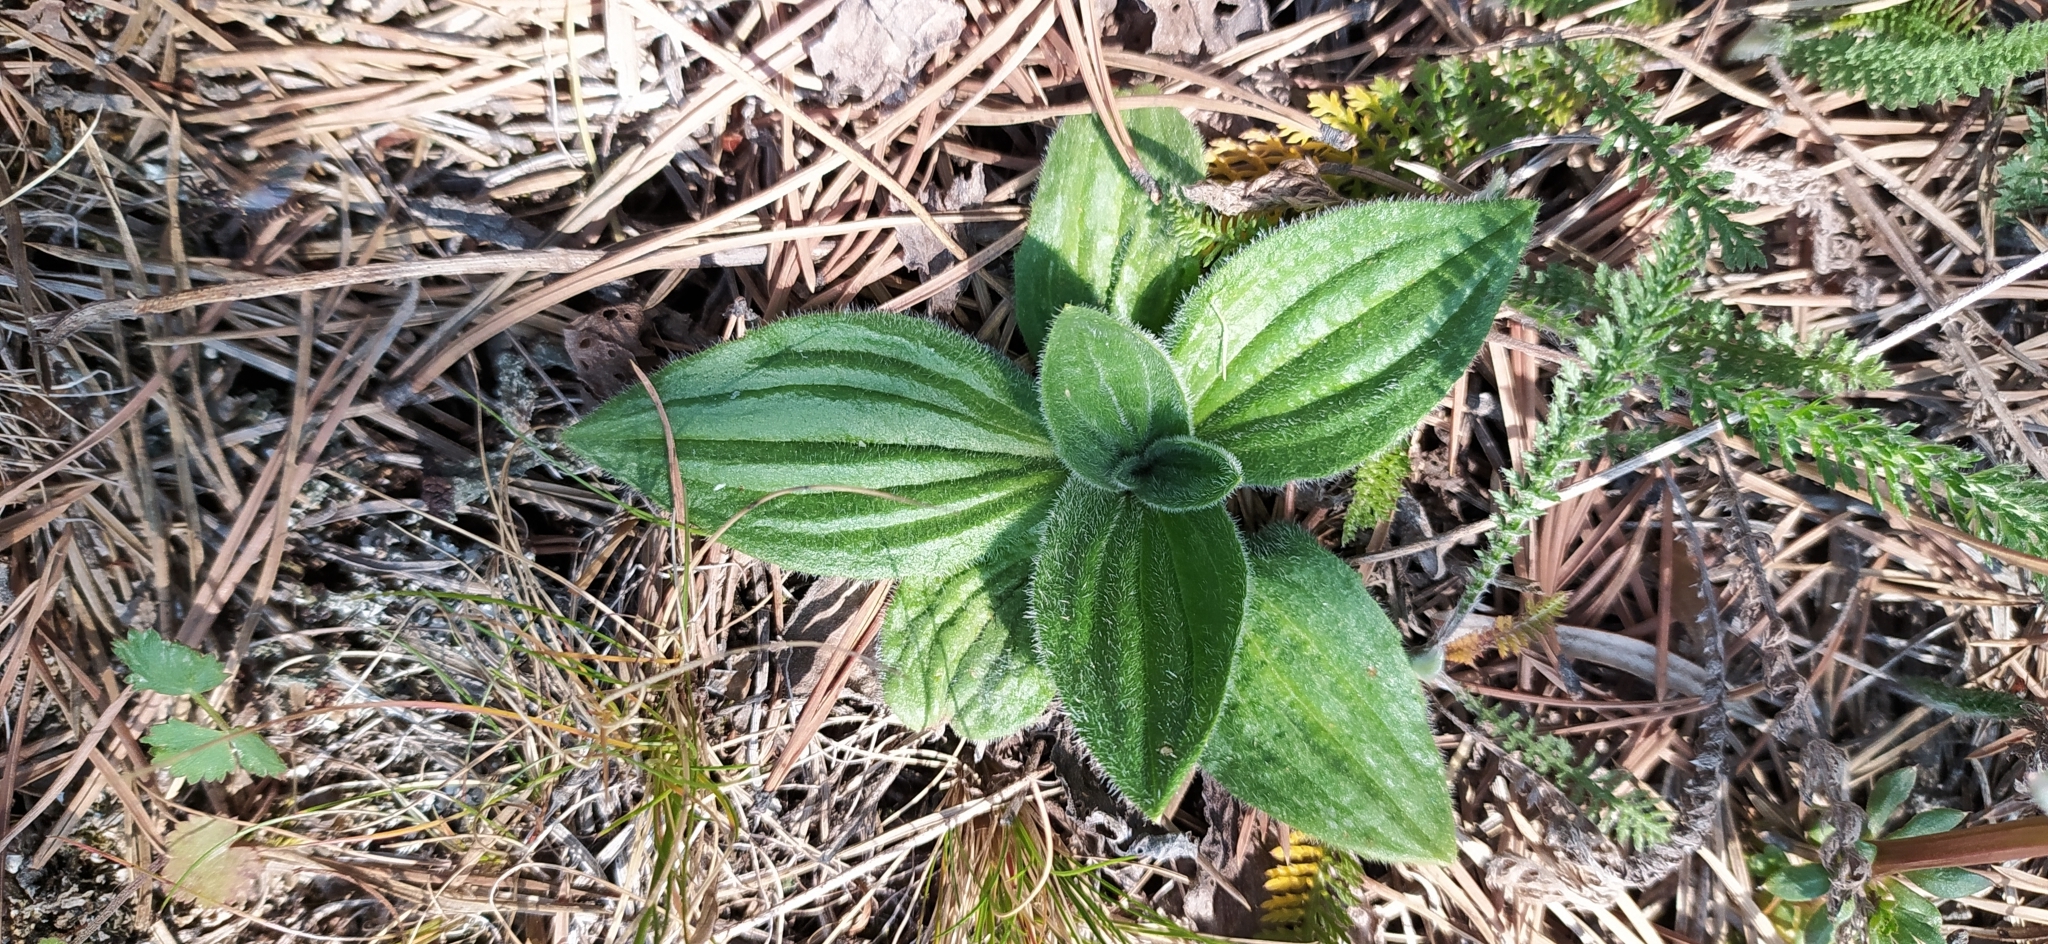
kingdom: Plantae
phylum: Tracheophyta
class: Magnoliopsida
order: Lamiales
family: Plantaginaceae
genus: Plantago
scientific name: Plantago media
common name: Hoary plantain
